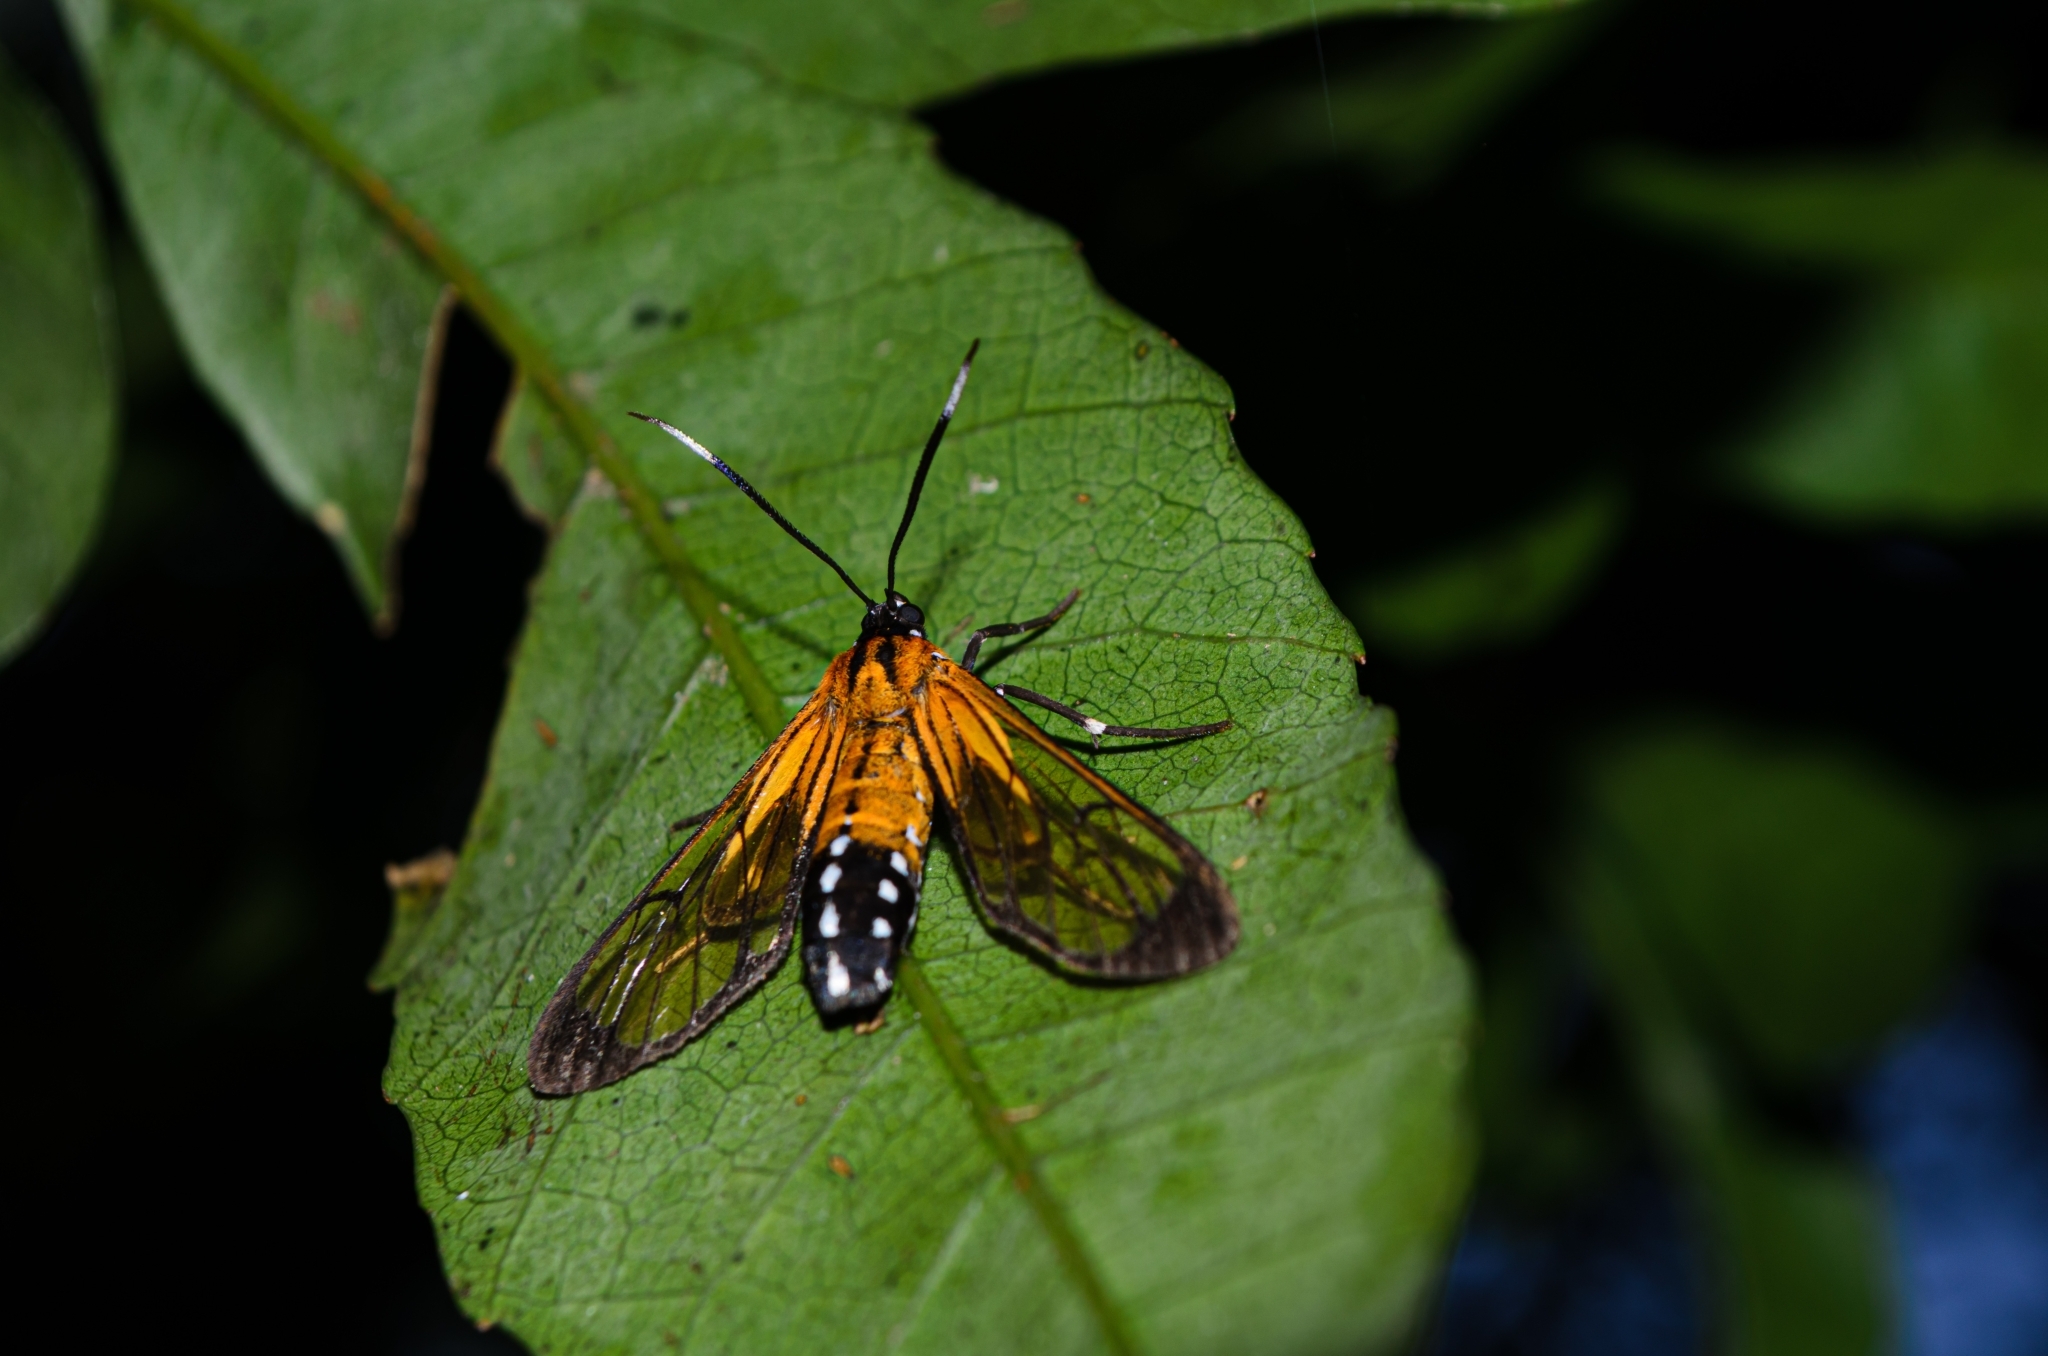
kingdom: Animalia
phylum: Arthropoda
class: Insecta
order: Lepidoptera
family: Erebidae
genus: Cosmosoma
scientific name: Cosmosoma xanthistis
